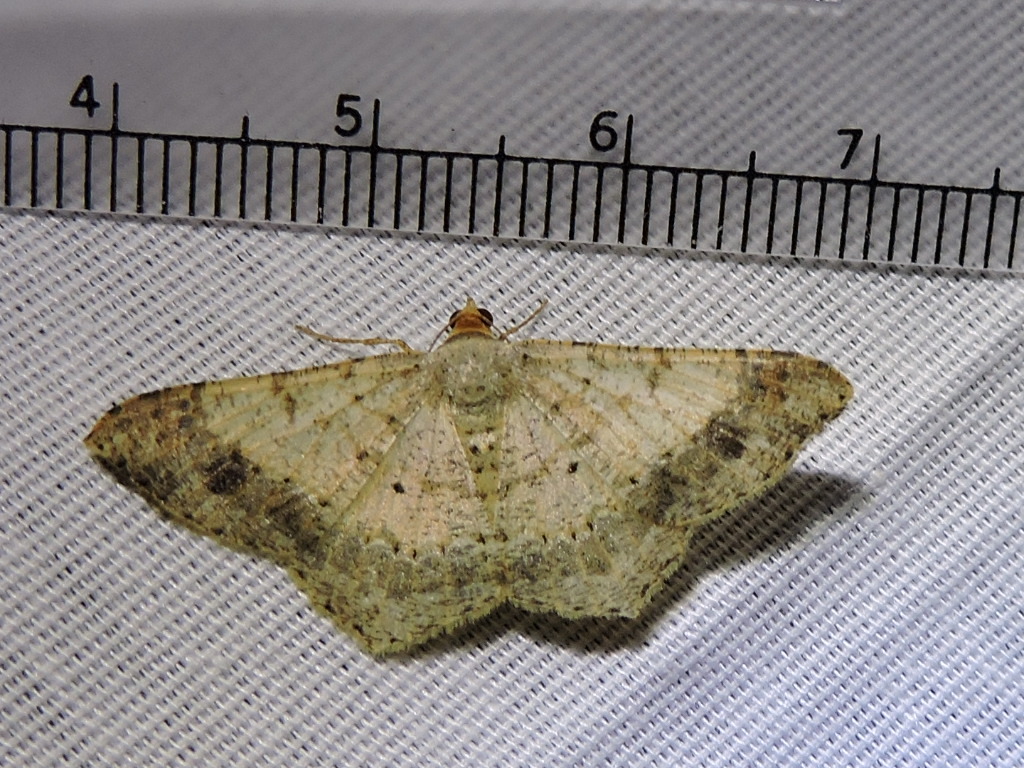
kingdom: Animalia
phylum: Arthropoda
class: Insecta
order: Lepidoptera
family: Geometridae
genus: Macaria
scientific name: Macaria abydata
